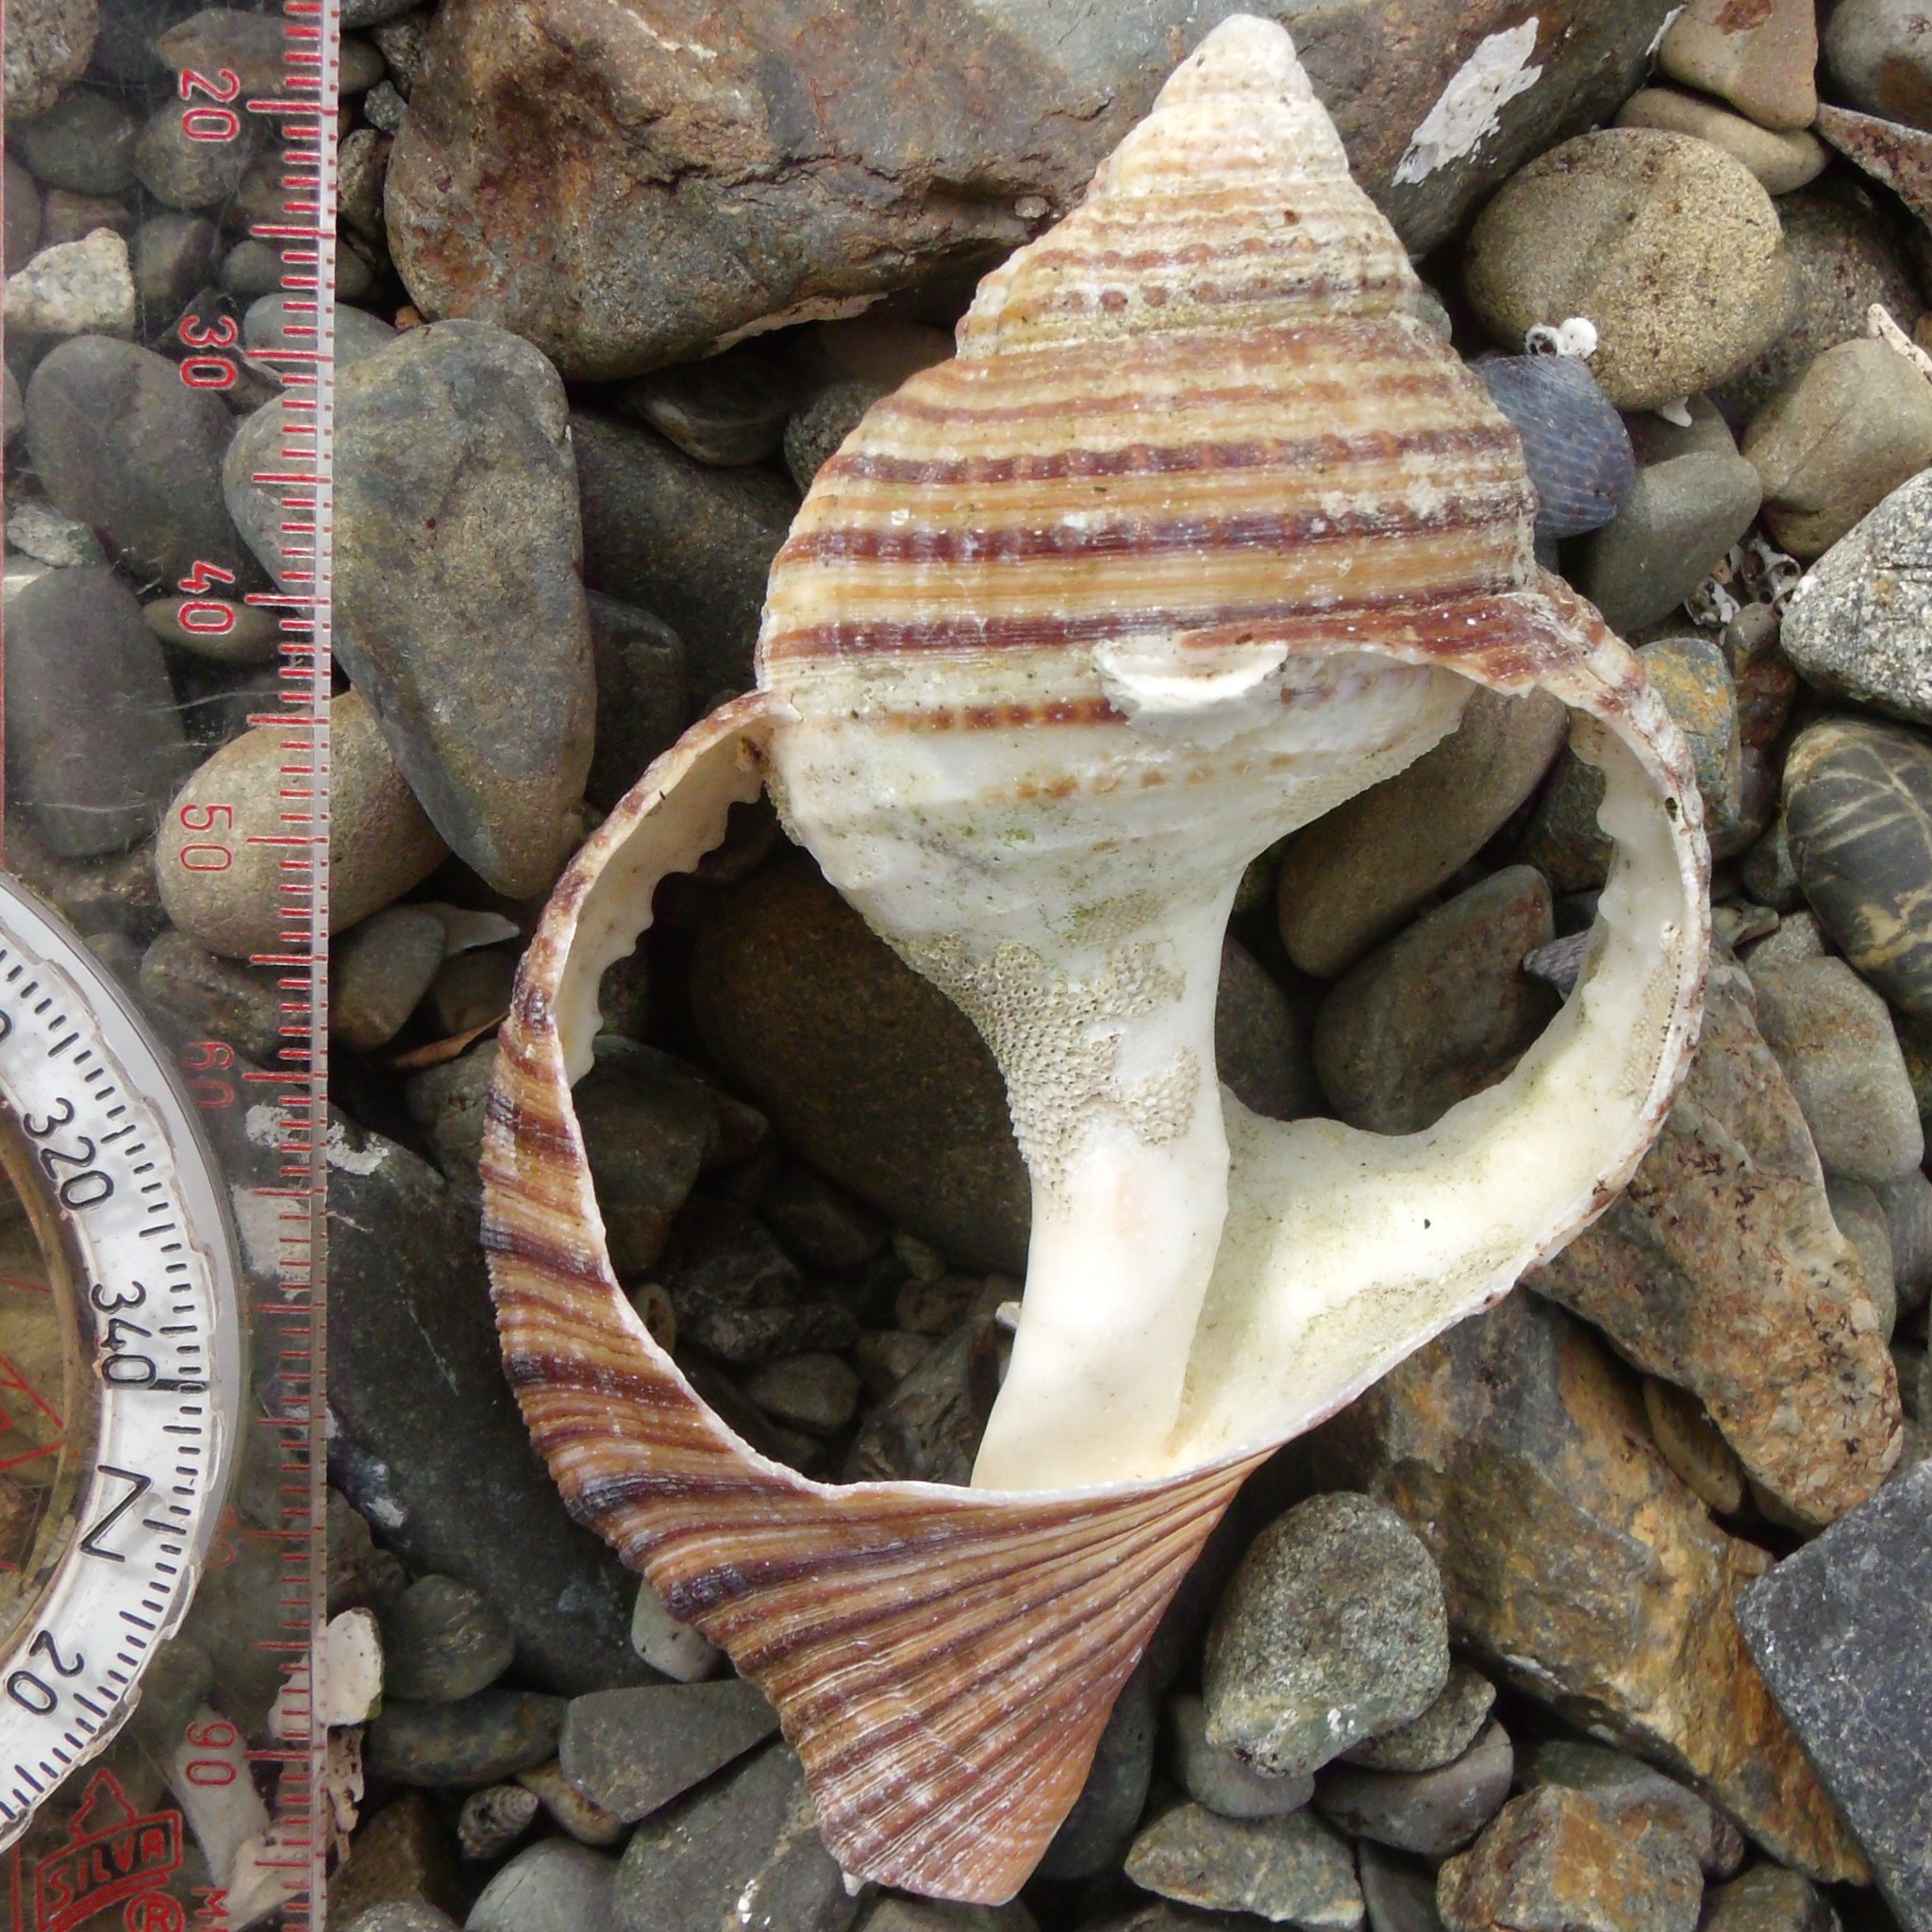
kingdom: Animalia
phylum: Mollusca
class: Gastropoda
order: Littorinimorpha
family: Cymatiidae
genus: Argobuccinum
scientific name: Argobuccinum pustulosum
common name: Pustular triton
